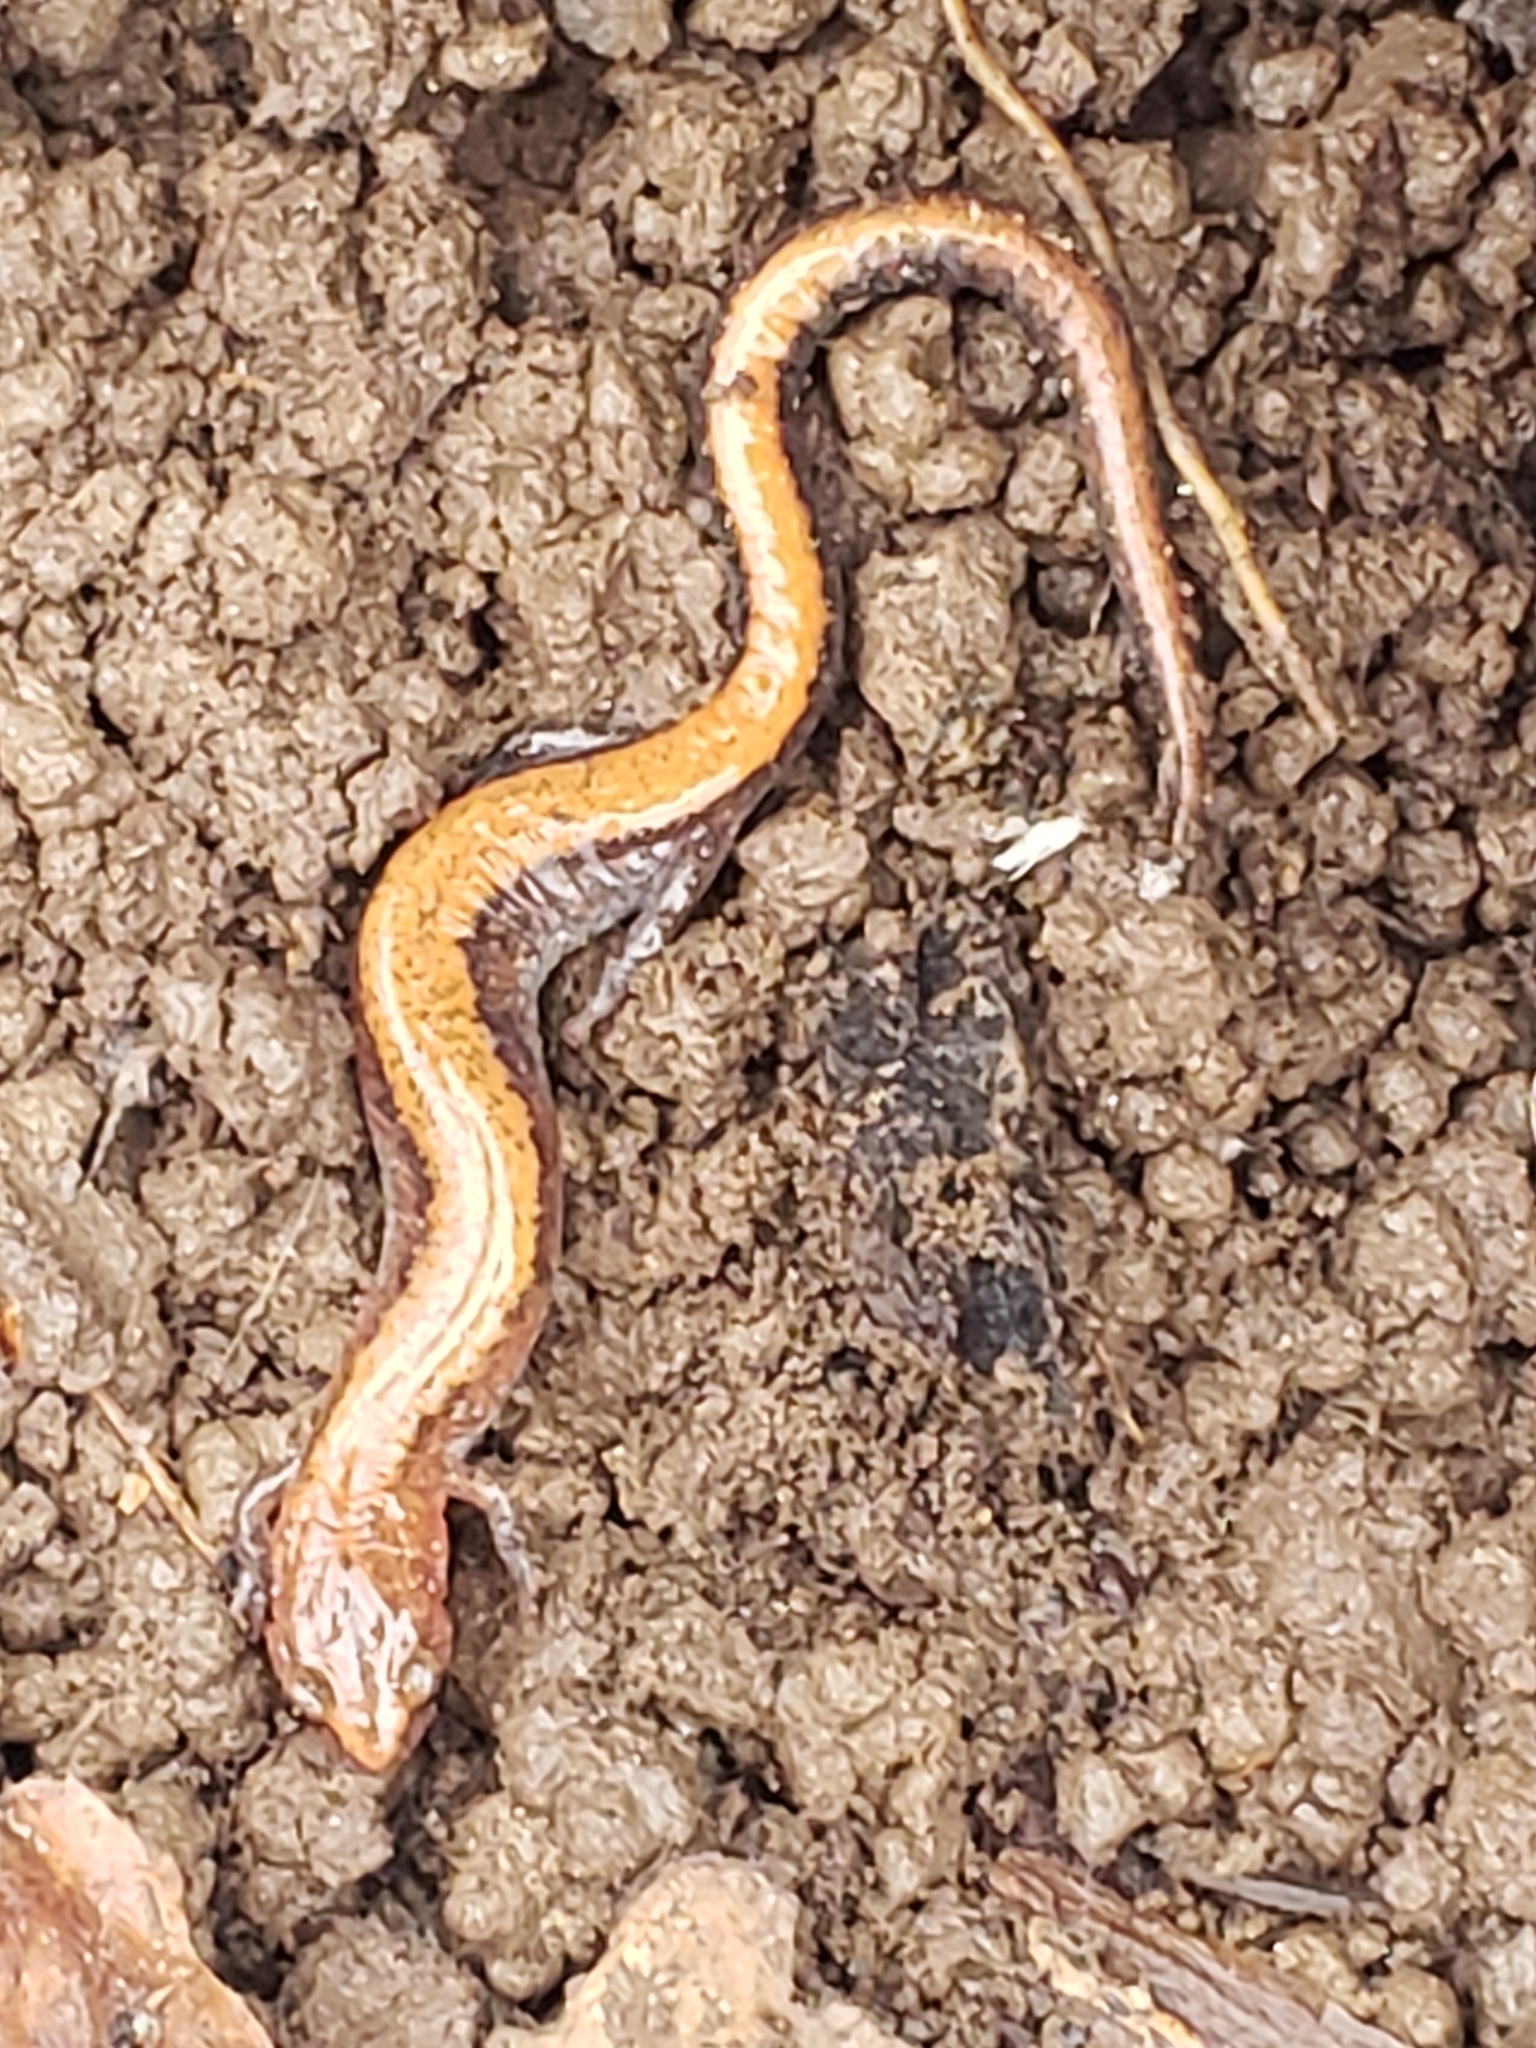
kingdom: Animalia
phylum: Chordata
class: Amphibia
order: Caudata
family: Plethodontidae
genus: Plethodon
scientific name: Plethodon cinereus
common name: Redback salamander
